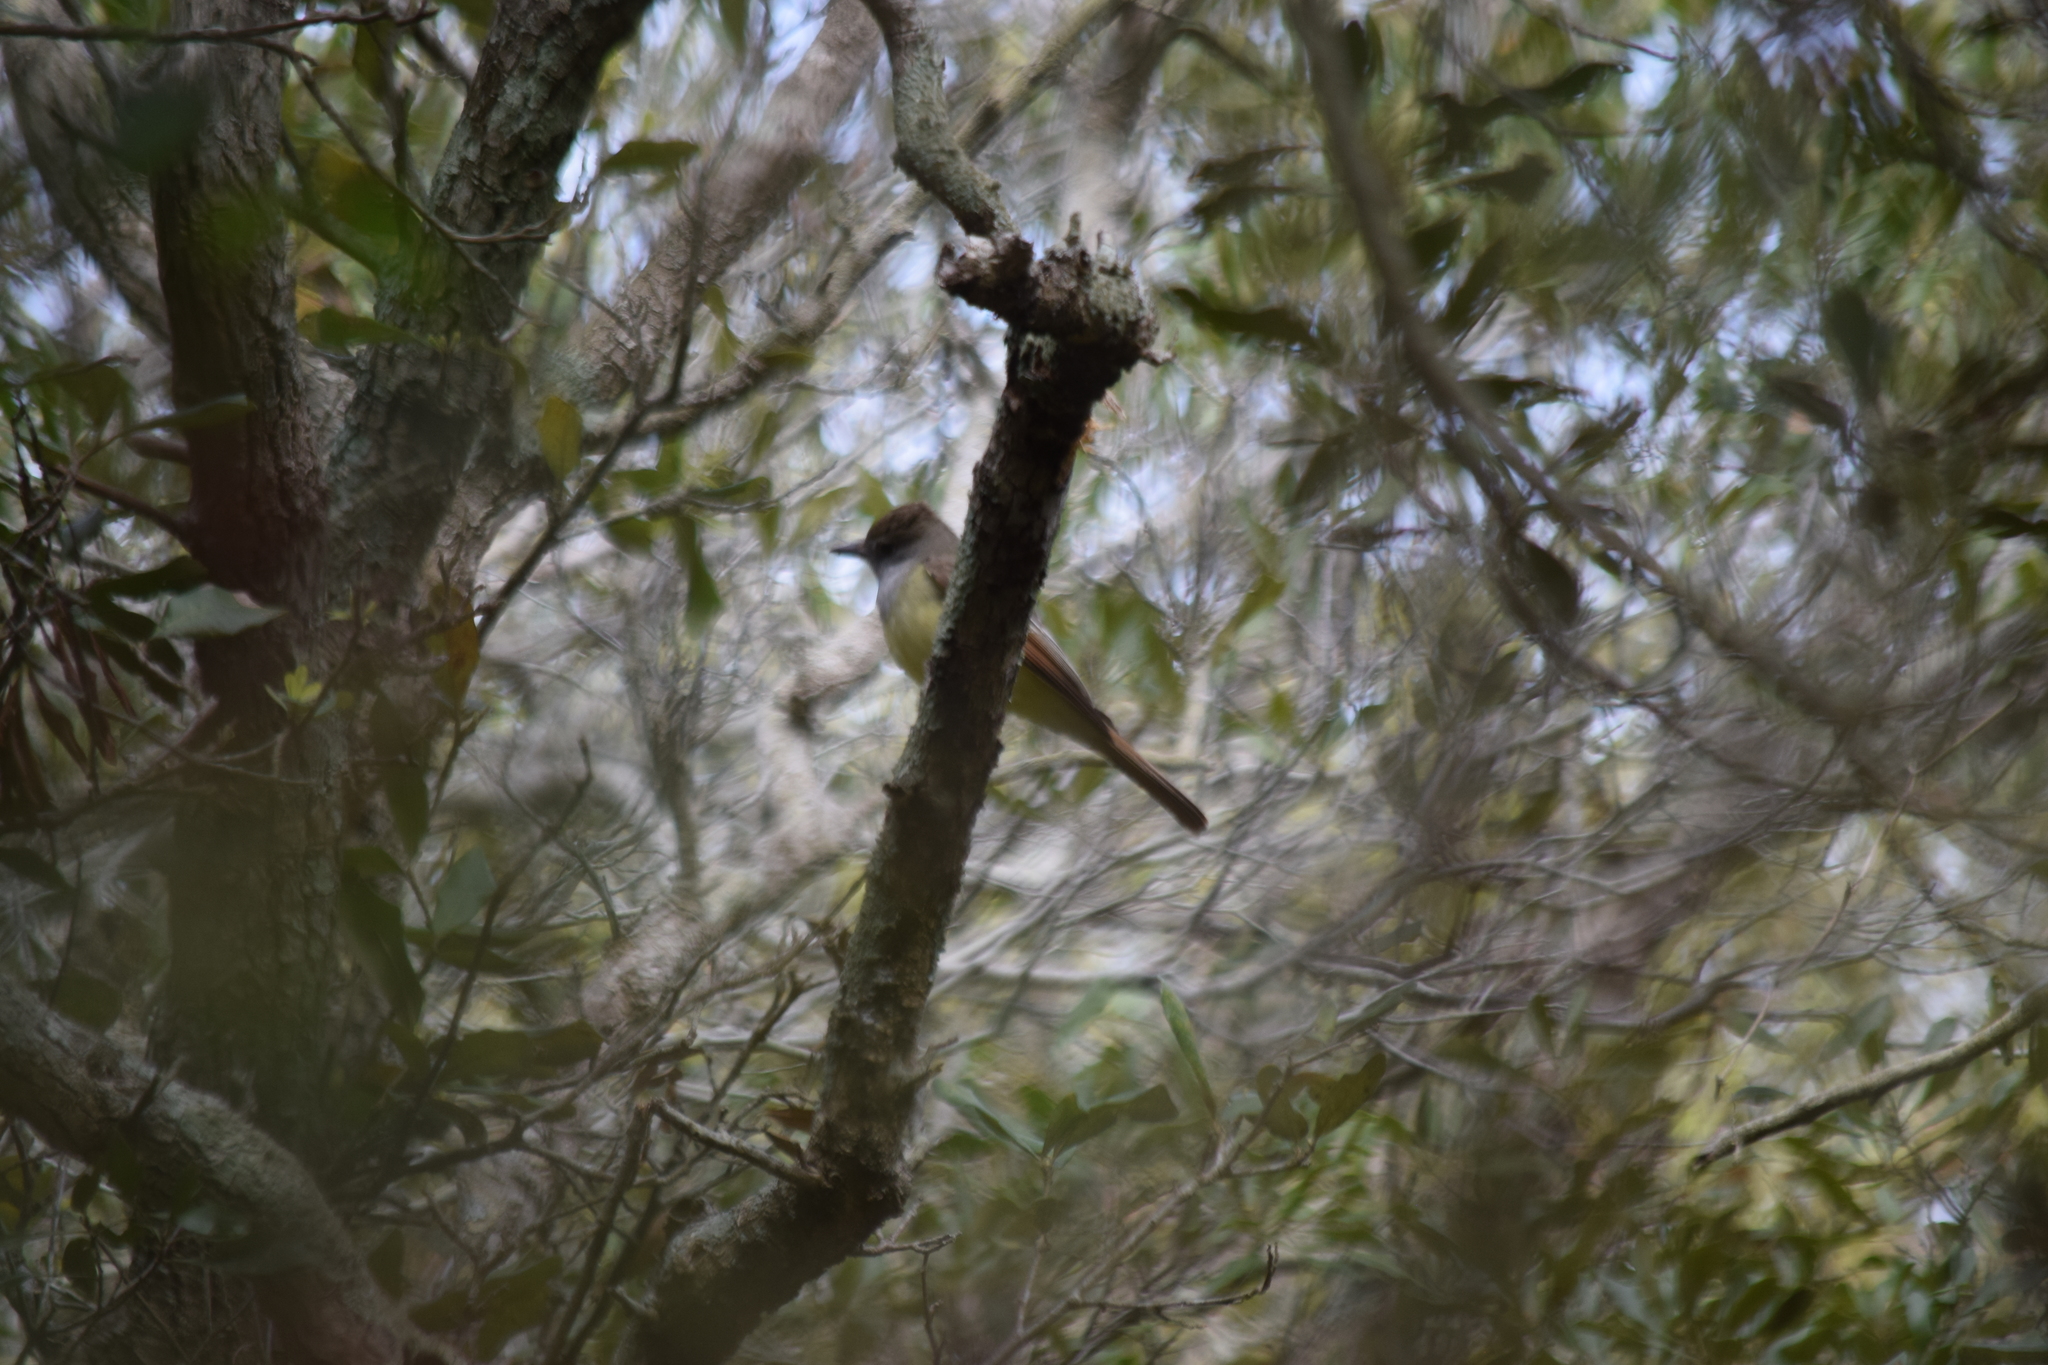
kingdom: Animalia
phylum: Chordata
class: Aves
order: Passeriformes
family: Tyrannidae
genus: Myiarchus
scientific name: Myiarchus crinitus
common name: Great crested flycatcher
